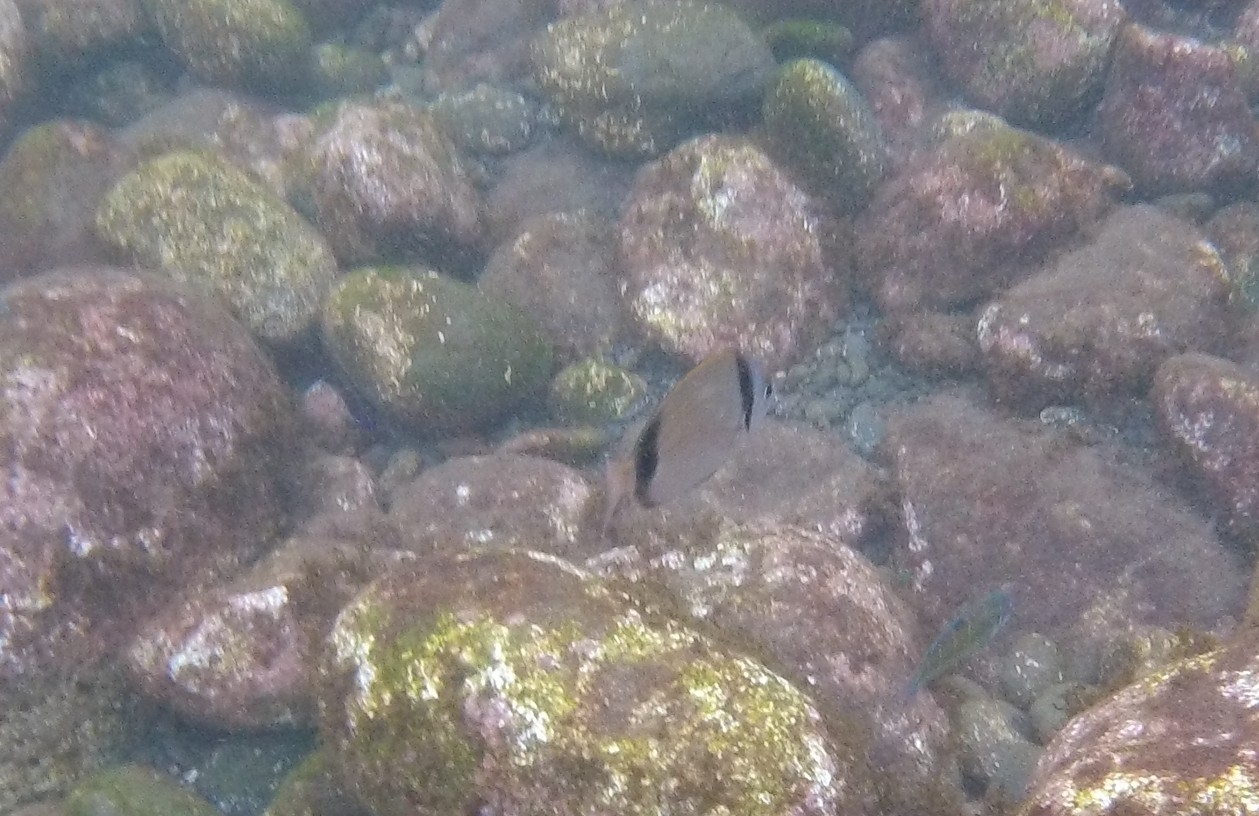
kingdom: Animalia
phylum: Chordata
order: Perciformes
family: Sparidae
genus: Diplodus
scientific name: Diplodus vulgaris
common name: Common two-banded seabream
